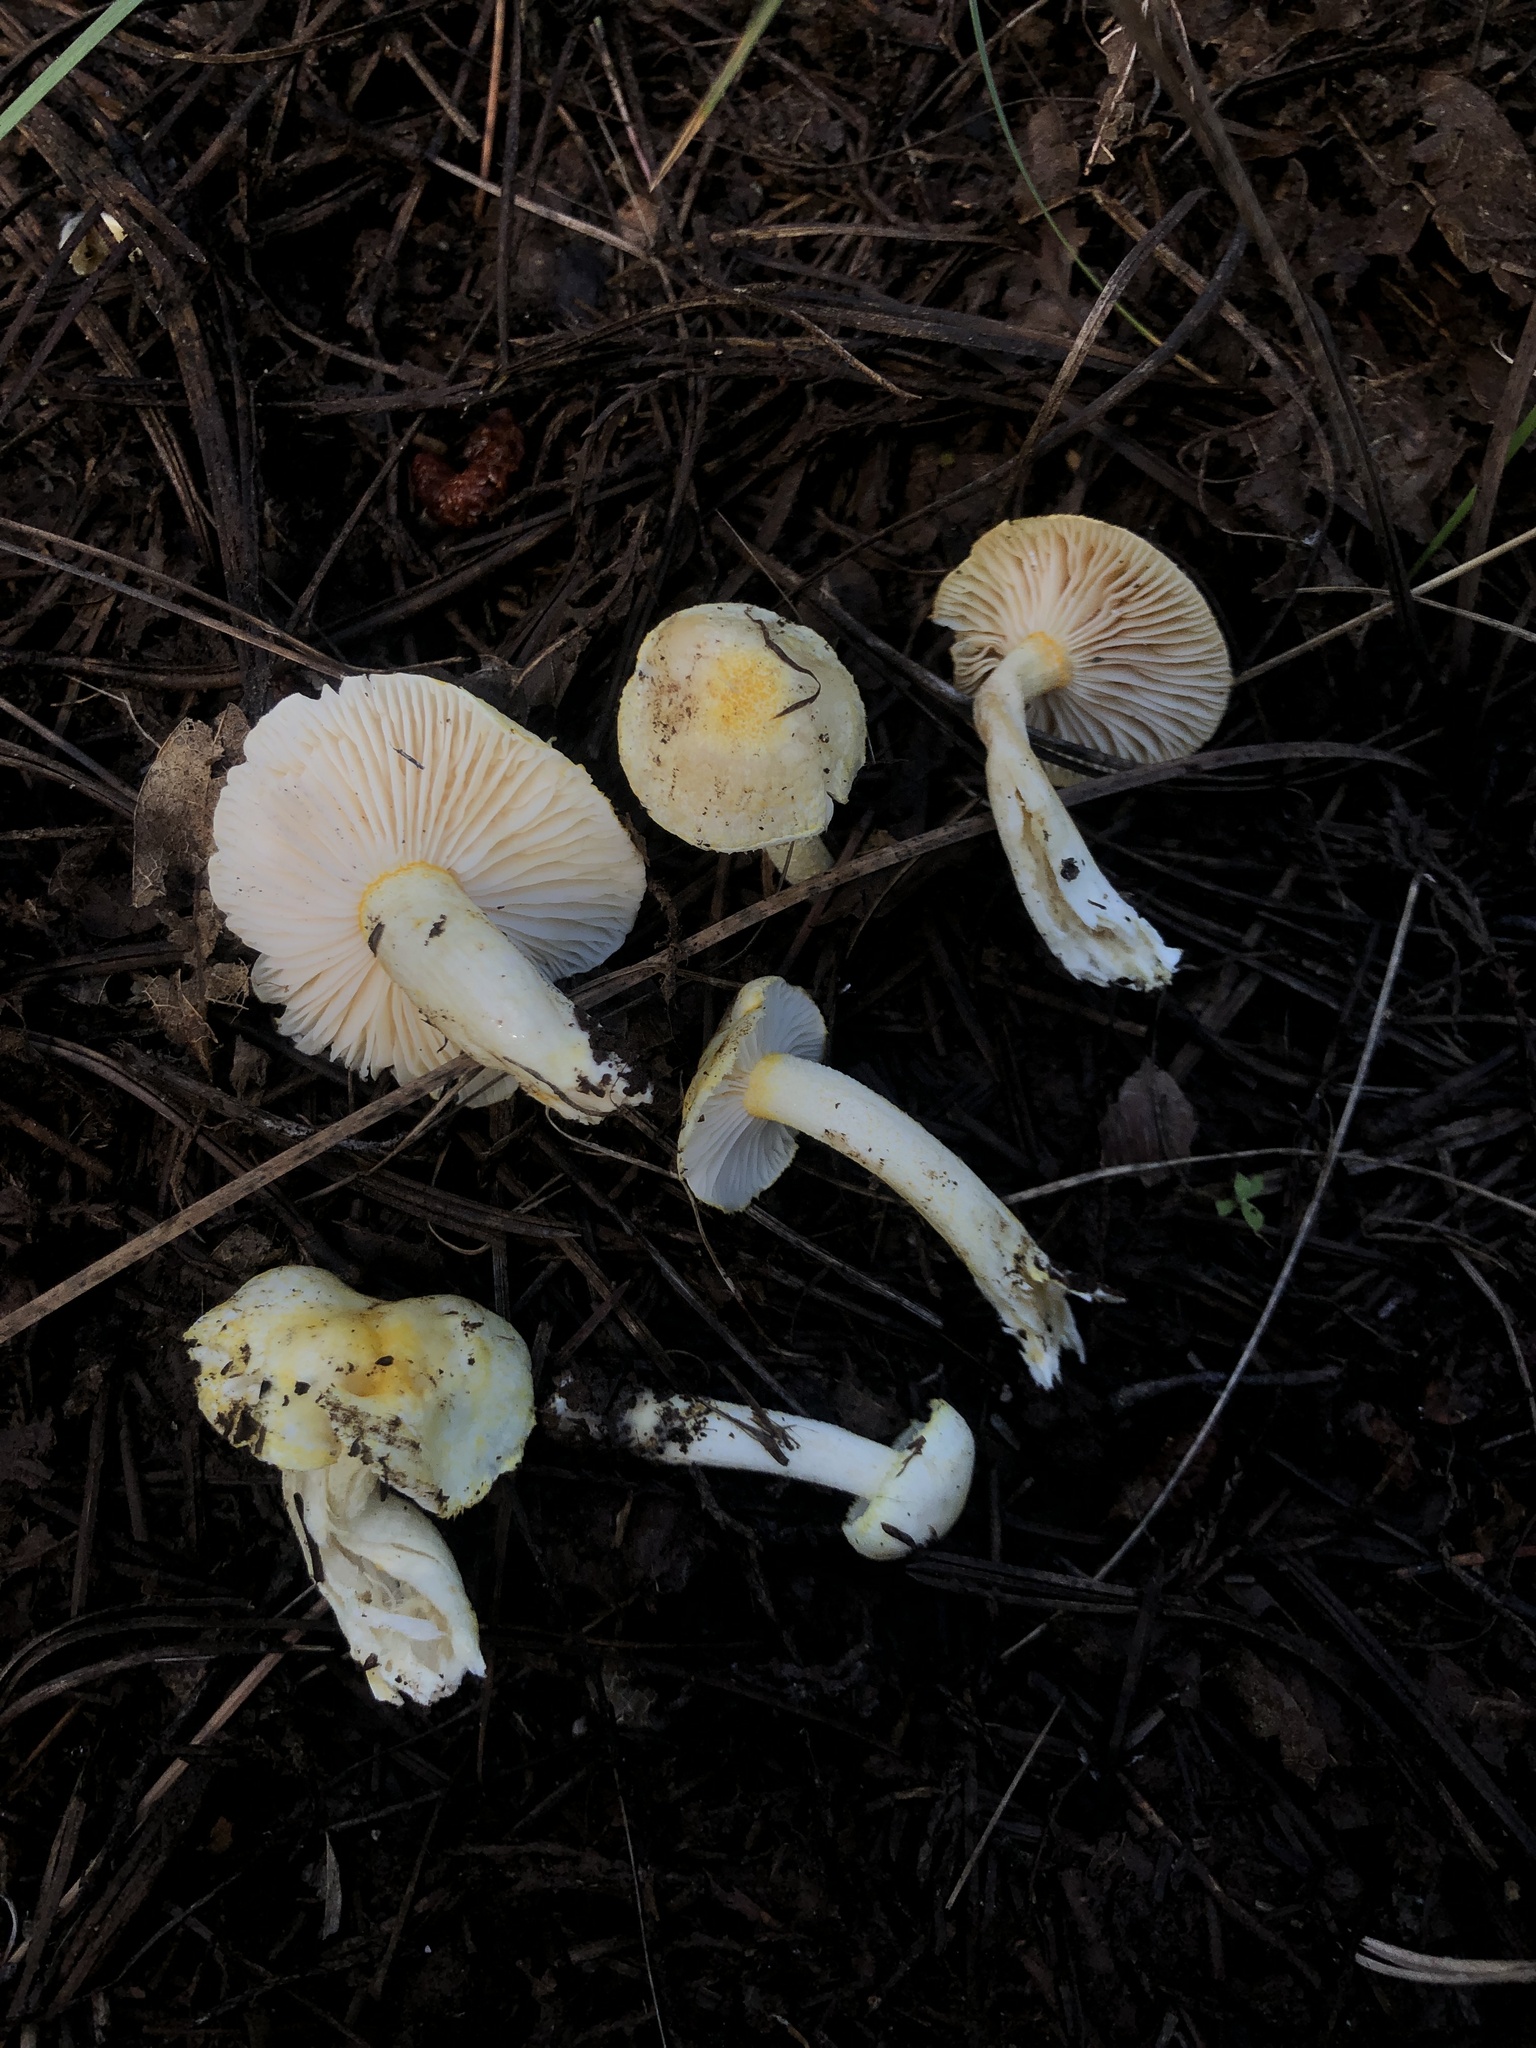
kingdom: Fungi
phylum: Basidiomycota
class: Agaricomycetes
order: Agaricales
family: Hygrophoraceae
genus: Hygrophorus
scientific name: Hygrophorus chrysodon
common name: Gold flecked woodwax
